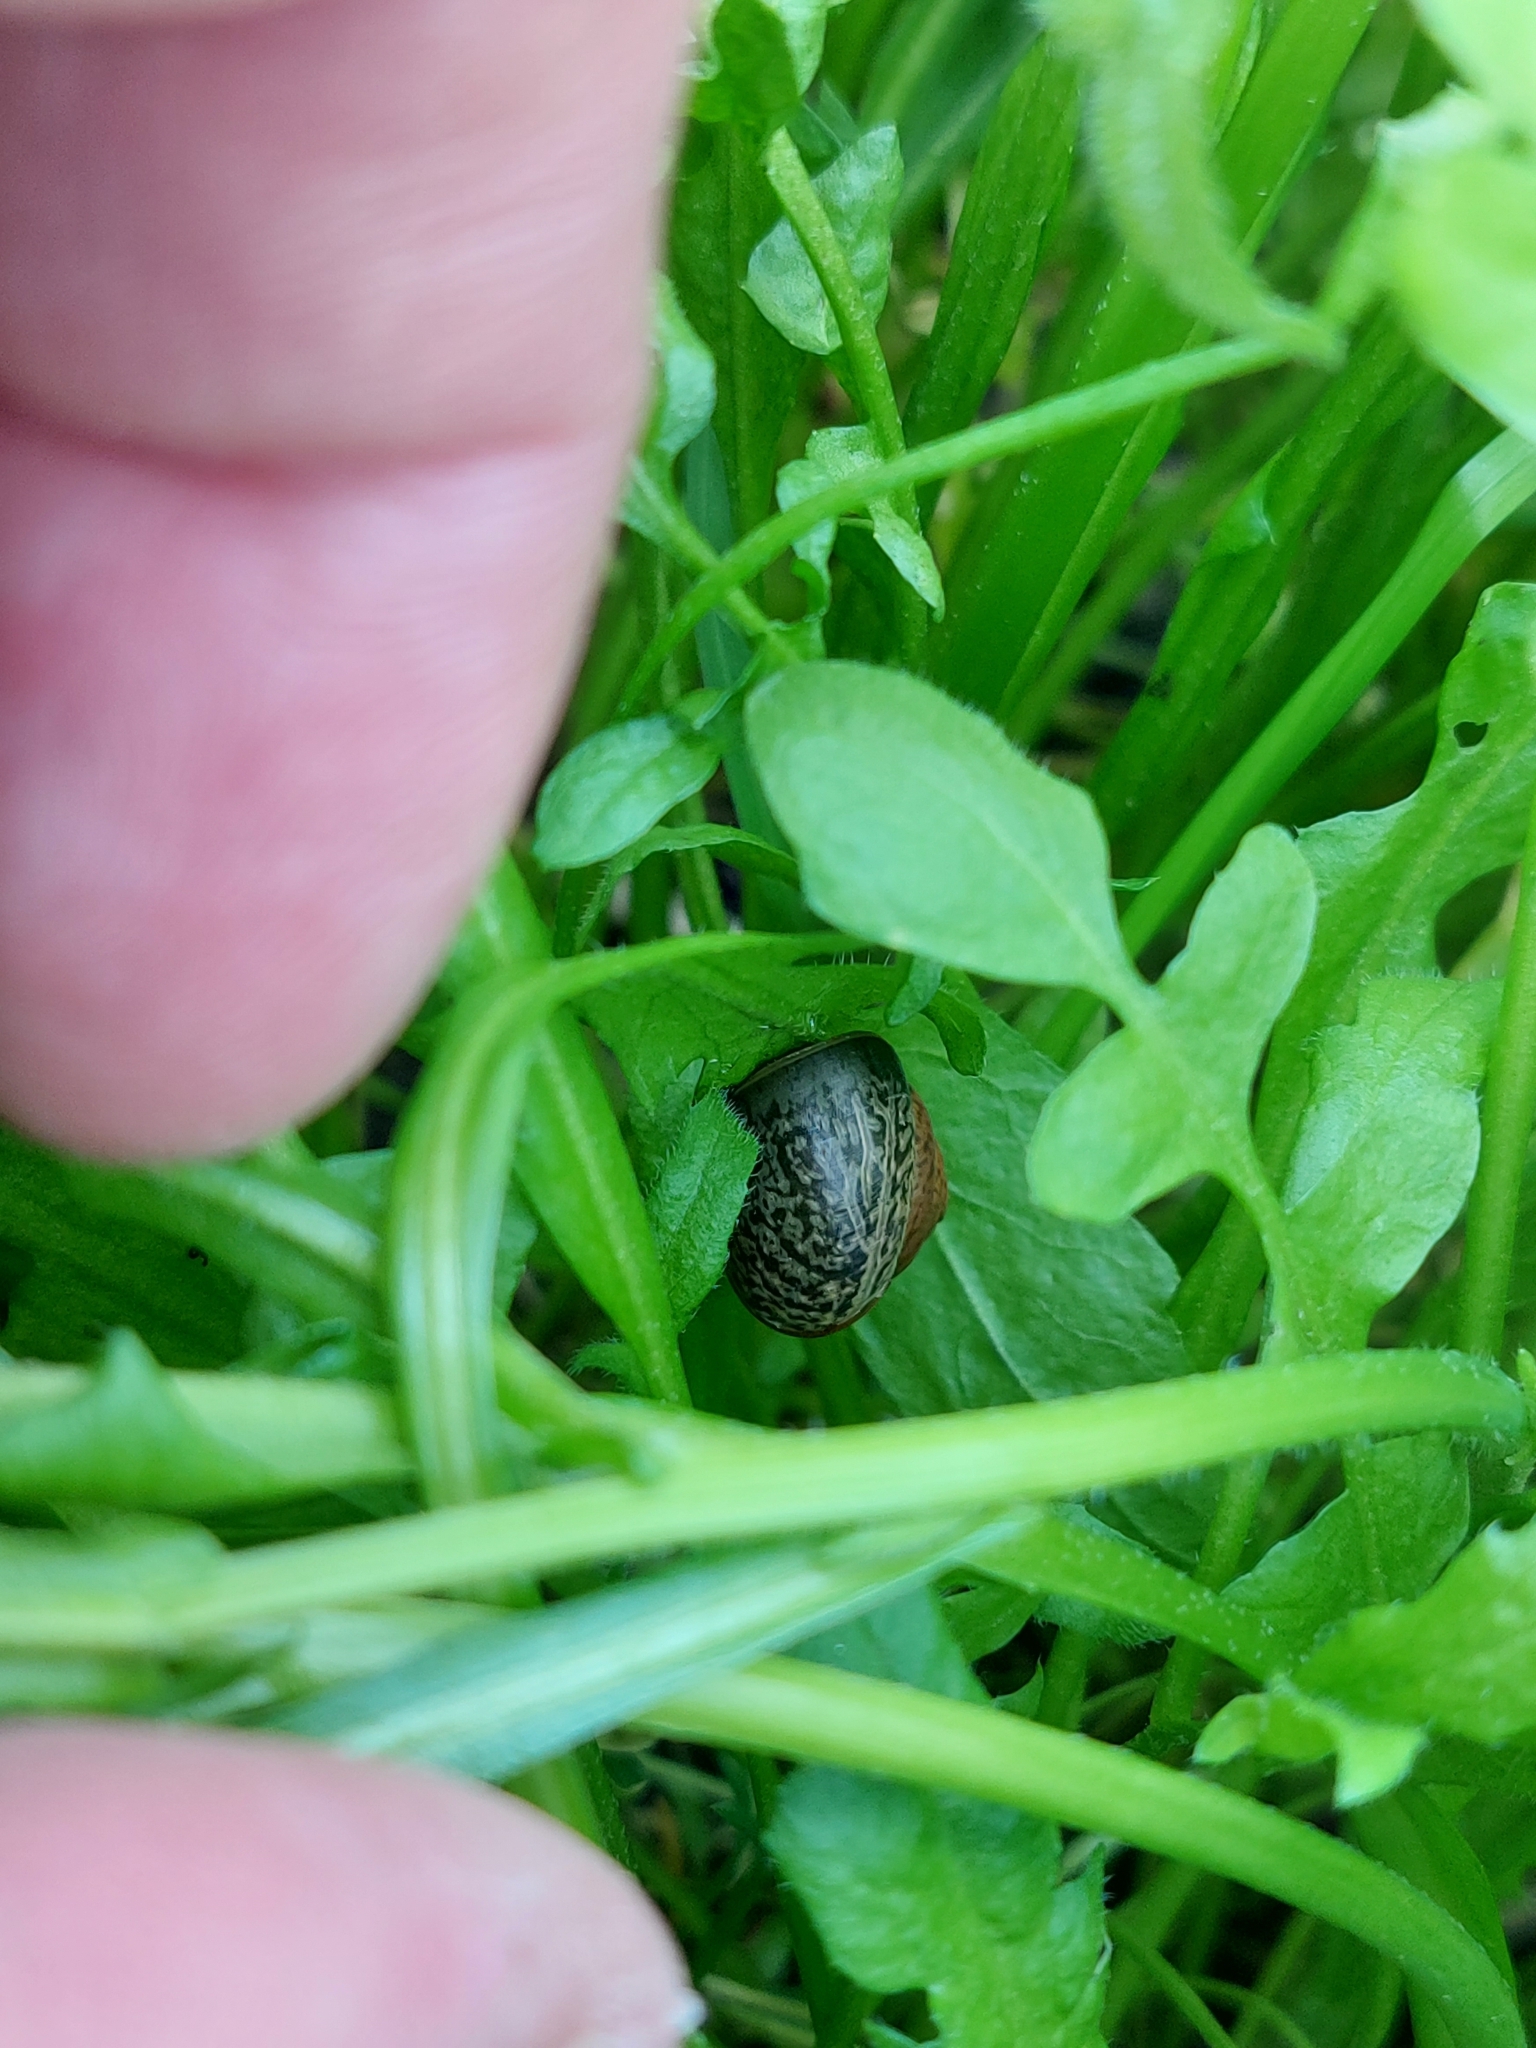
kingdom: Animalia
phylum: Mollusca
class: Gastropoda
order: Stylommatophora
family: Camaenidae
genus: Fruticicola
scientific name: Fruticicola fruticum
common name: Bush snail
